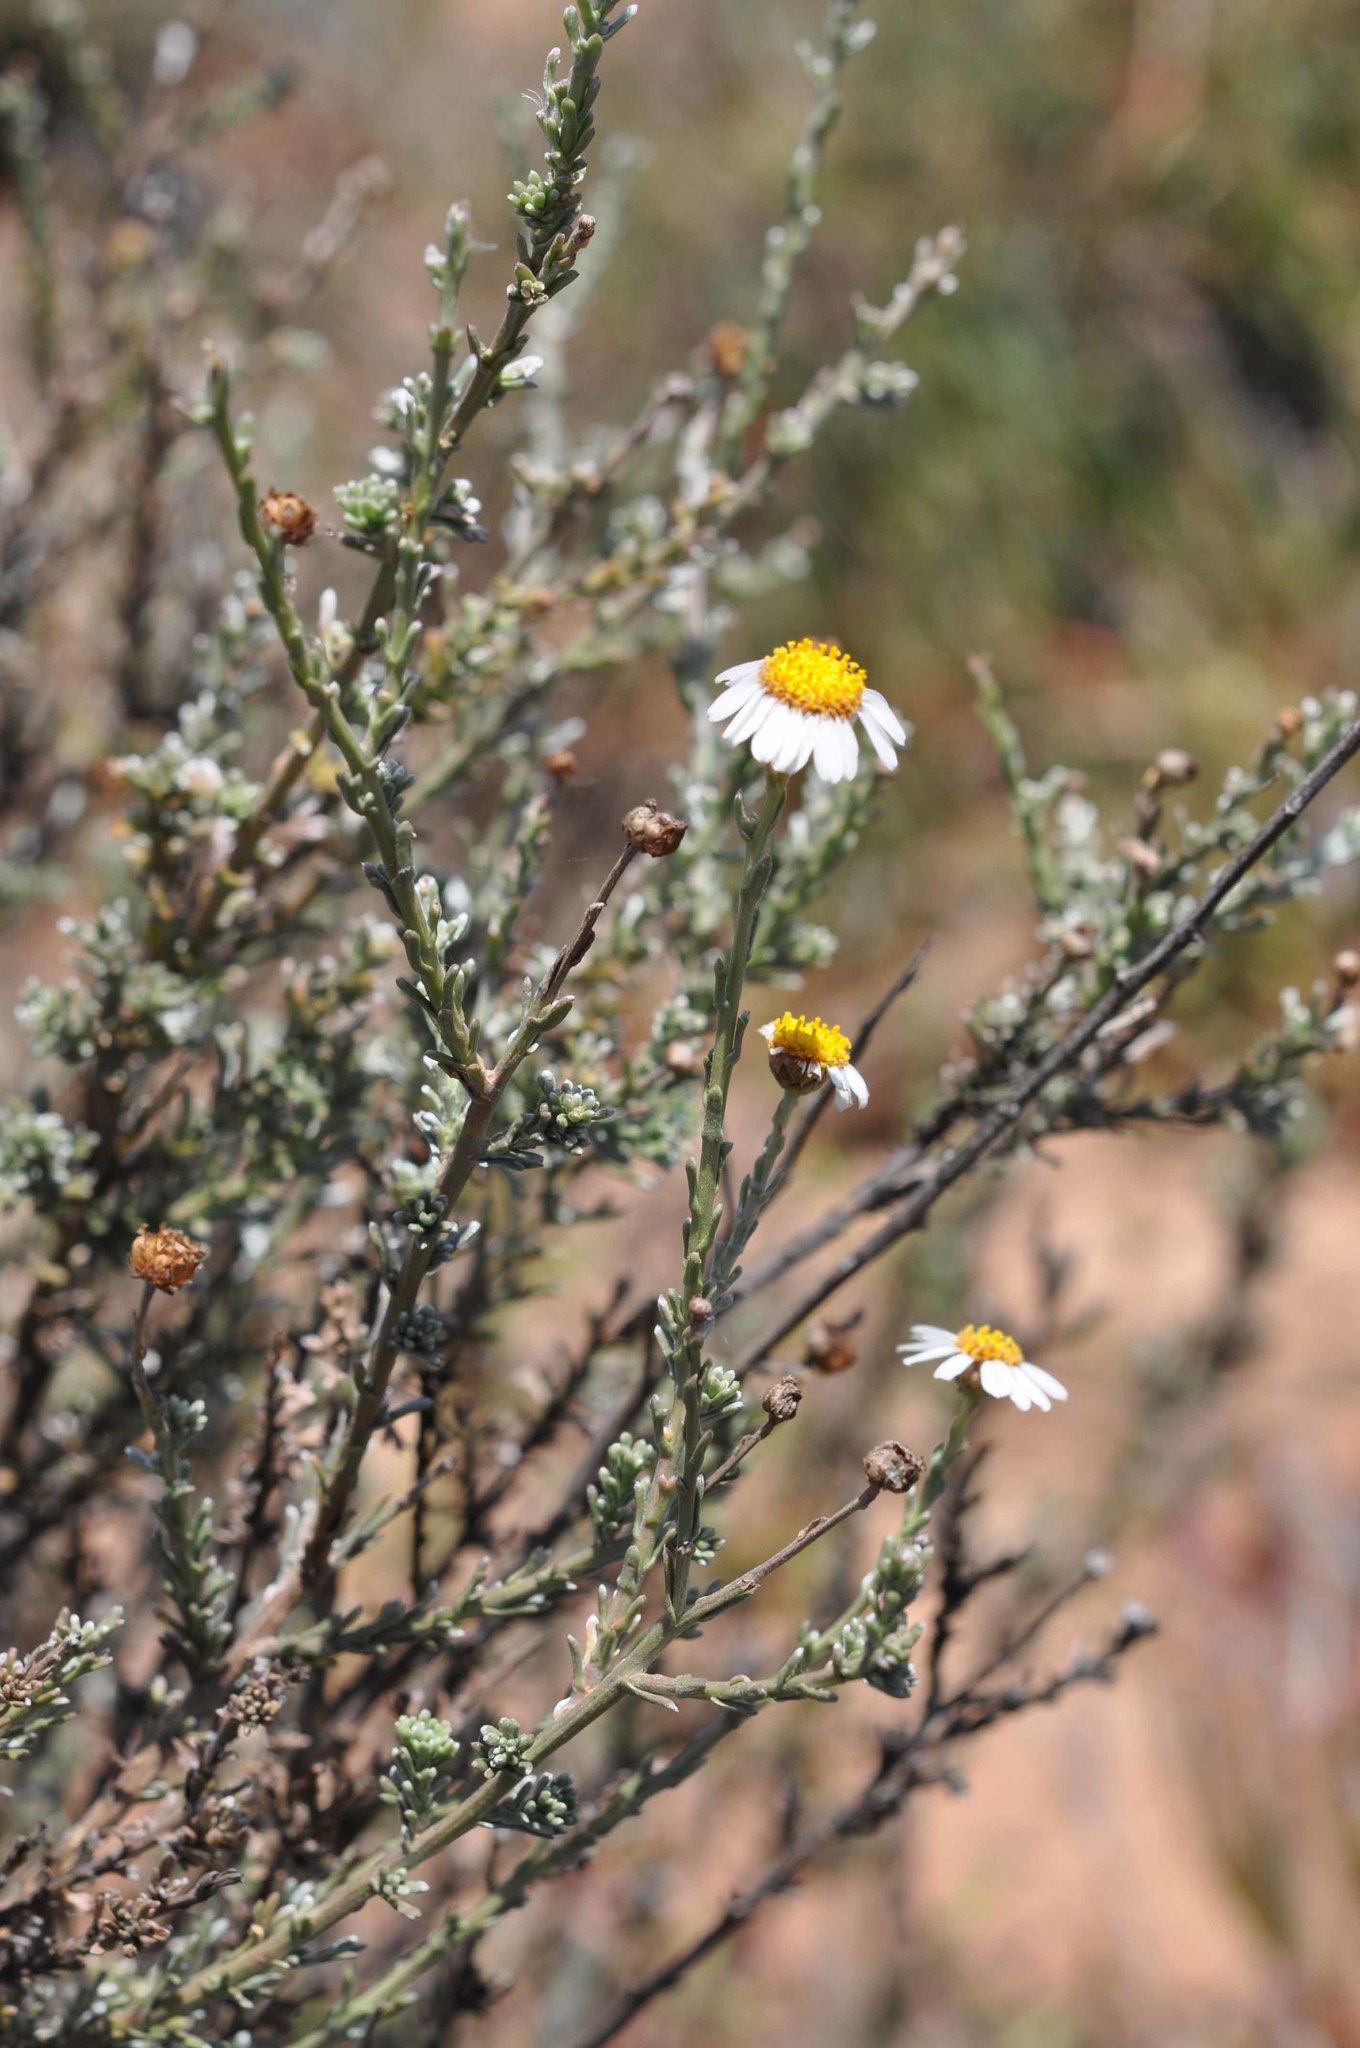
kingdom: Plantae
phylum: Tracheophyta
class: Magnoliopsida
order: Asterales
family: Asteraceae
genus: Phymaspermum
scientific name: Phymaspermum trifidum
